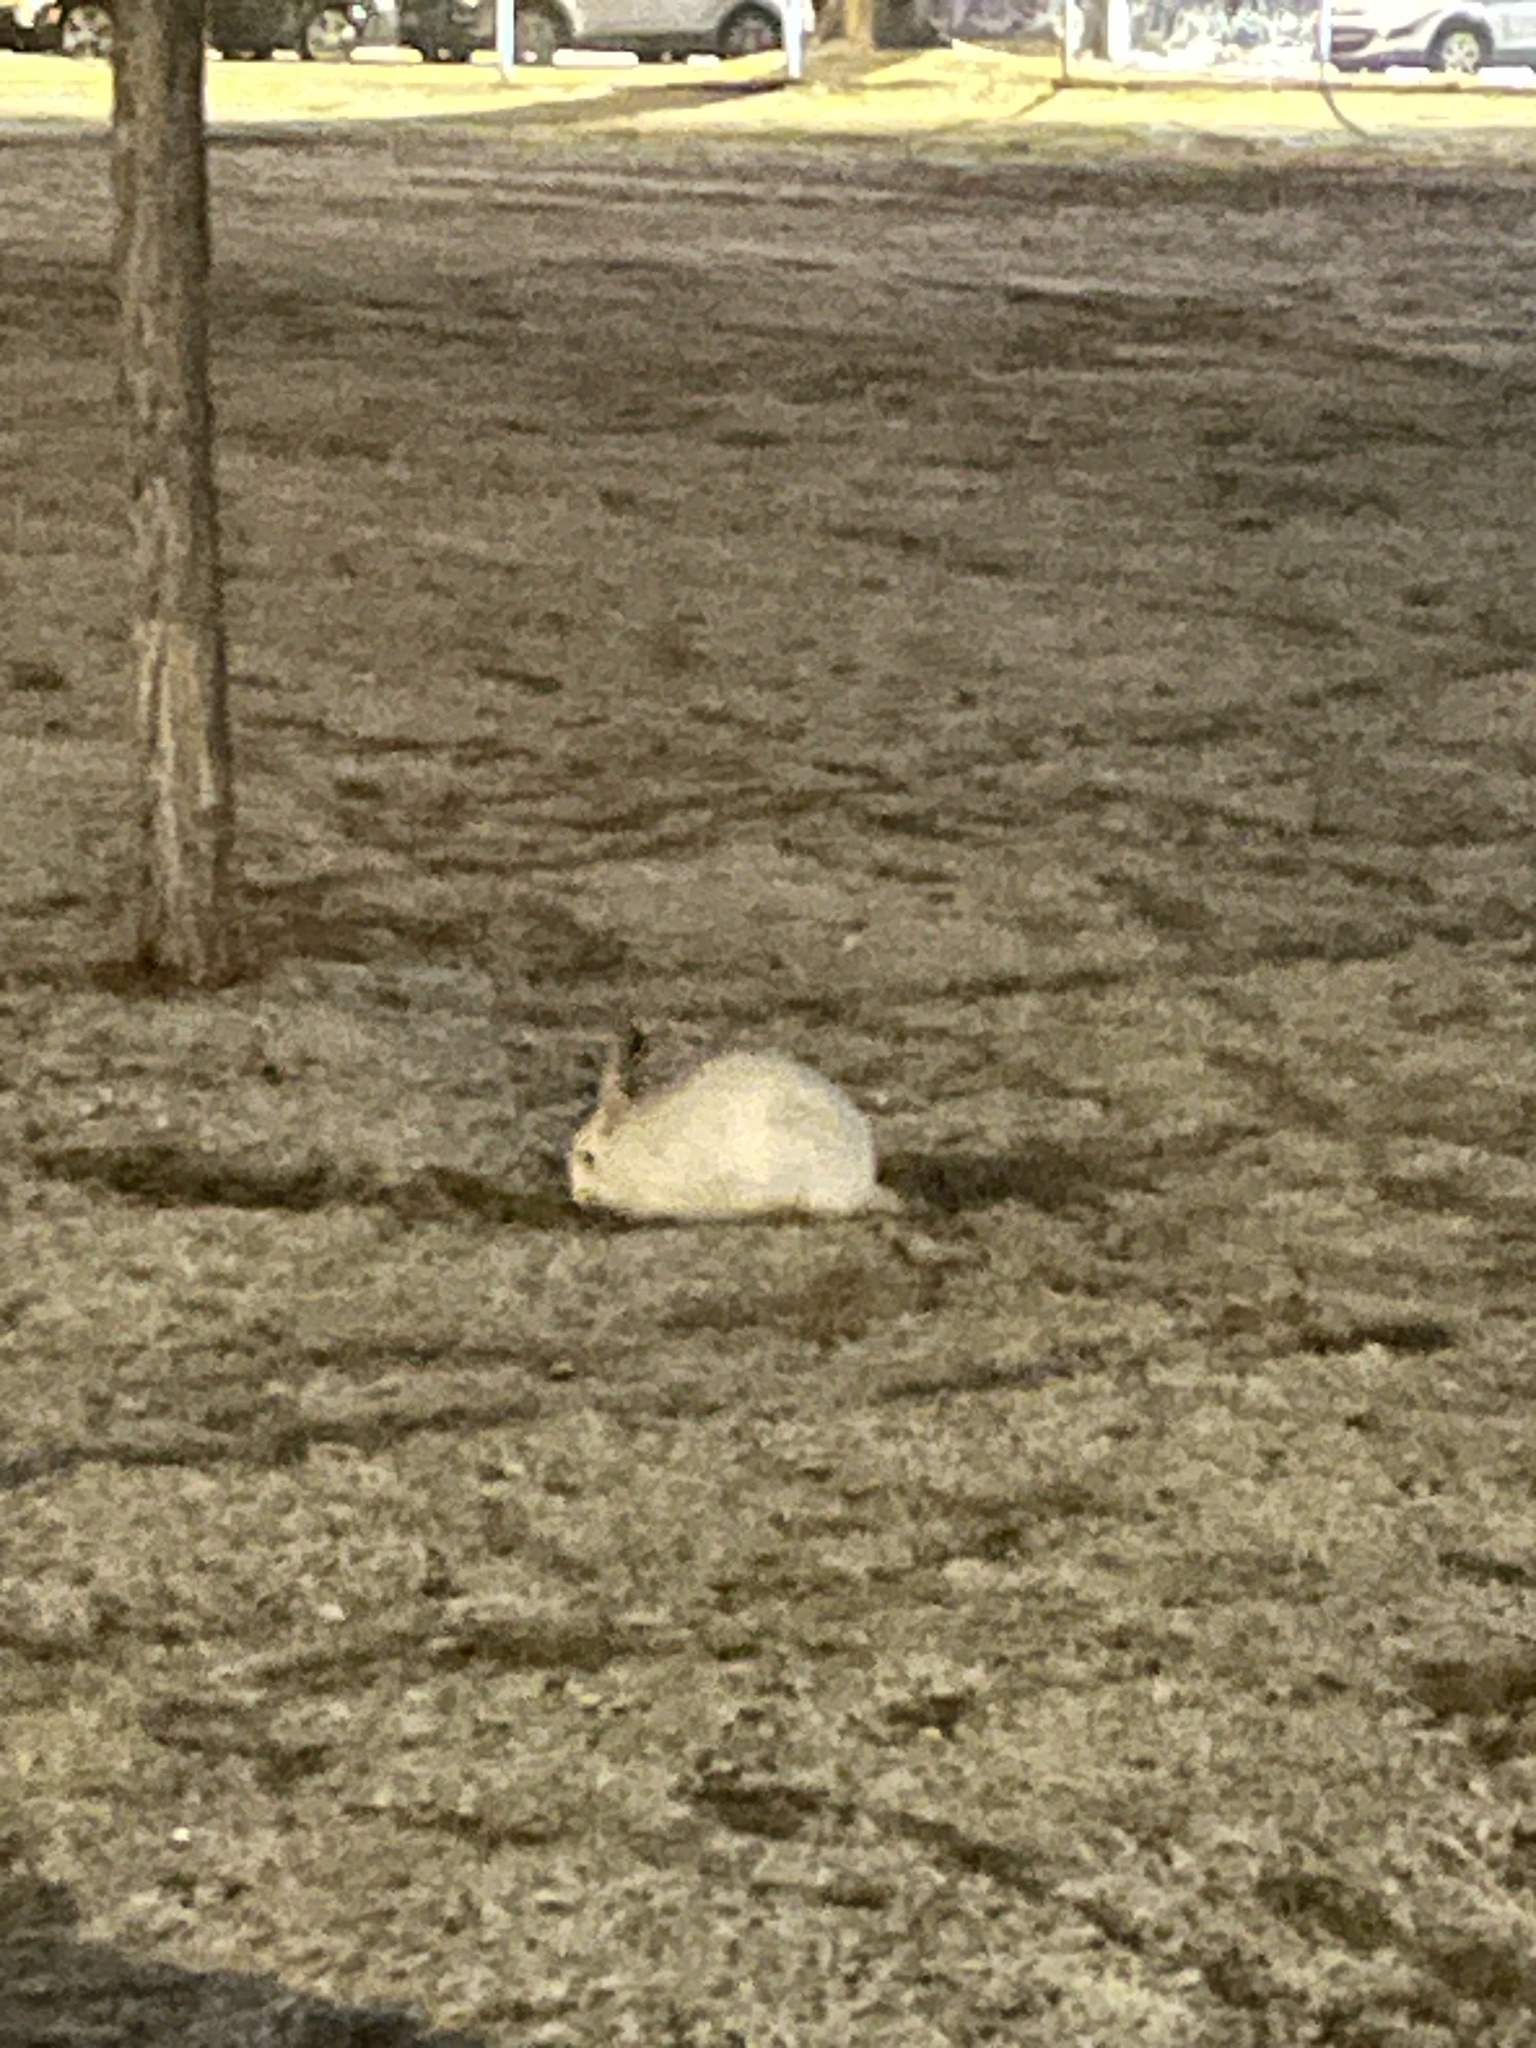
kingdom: Animalia
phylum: Chordata
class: Mammalia
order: Lagomorpha
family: Leporidae
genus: Lepus
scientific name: Lepus americanus
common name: Snowshoe hare
